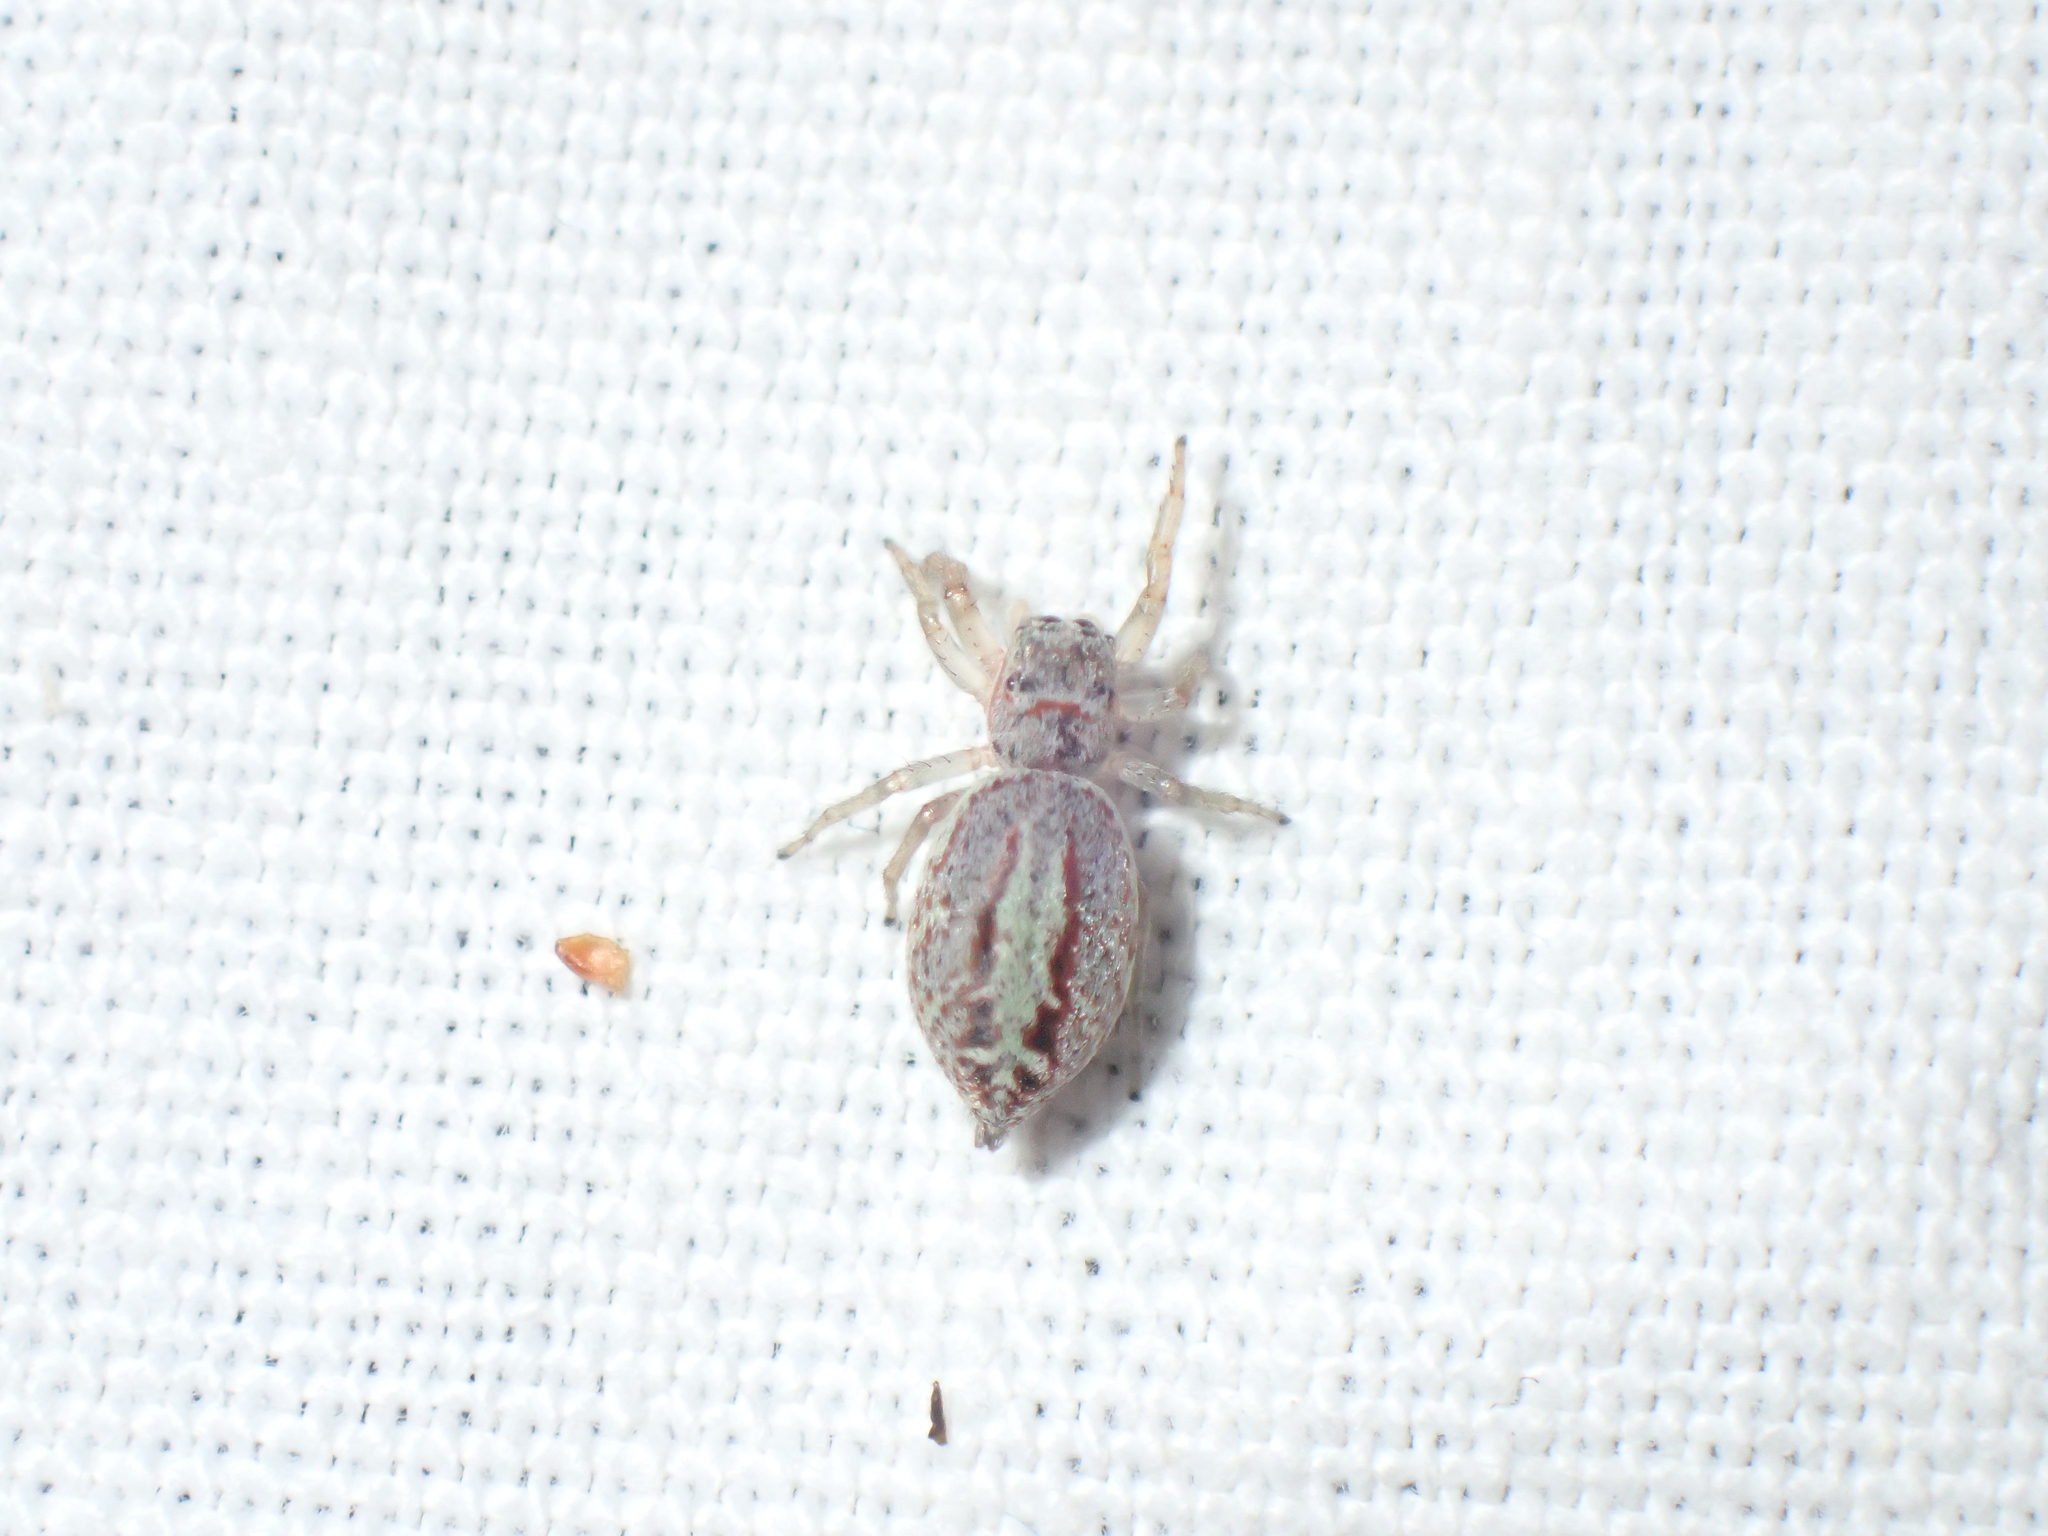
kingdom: Animalia
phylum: Arthropoda
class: Arachnida
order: Araneae
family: Salticidae
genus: Icius
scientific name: Icius
